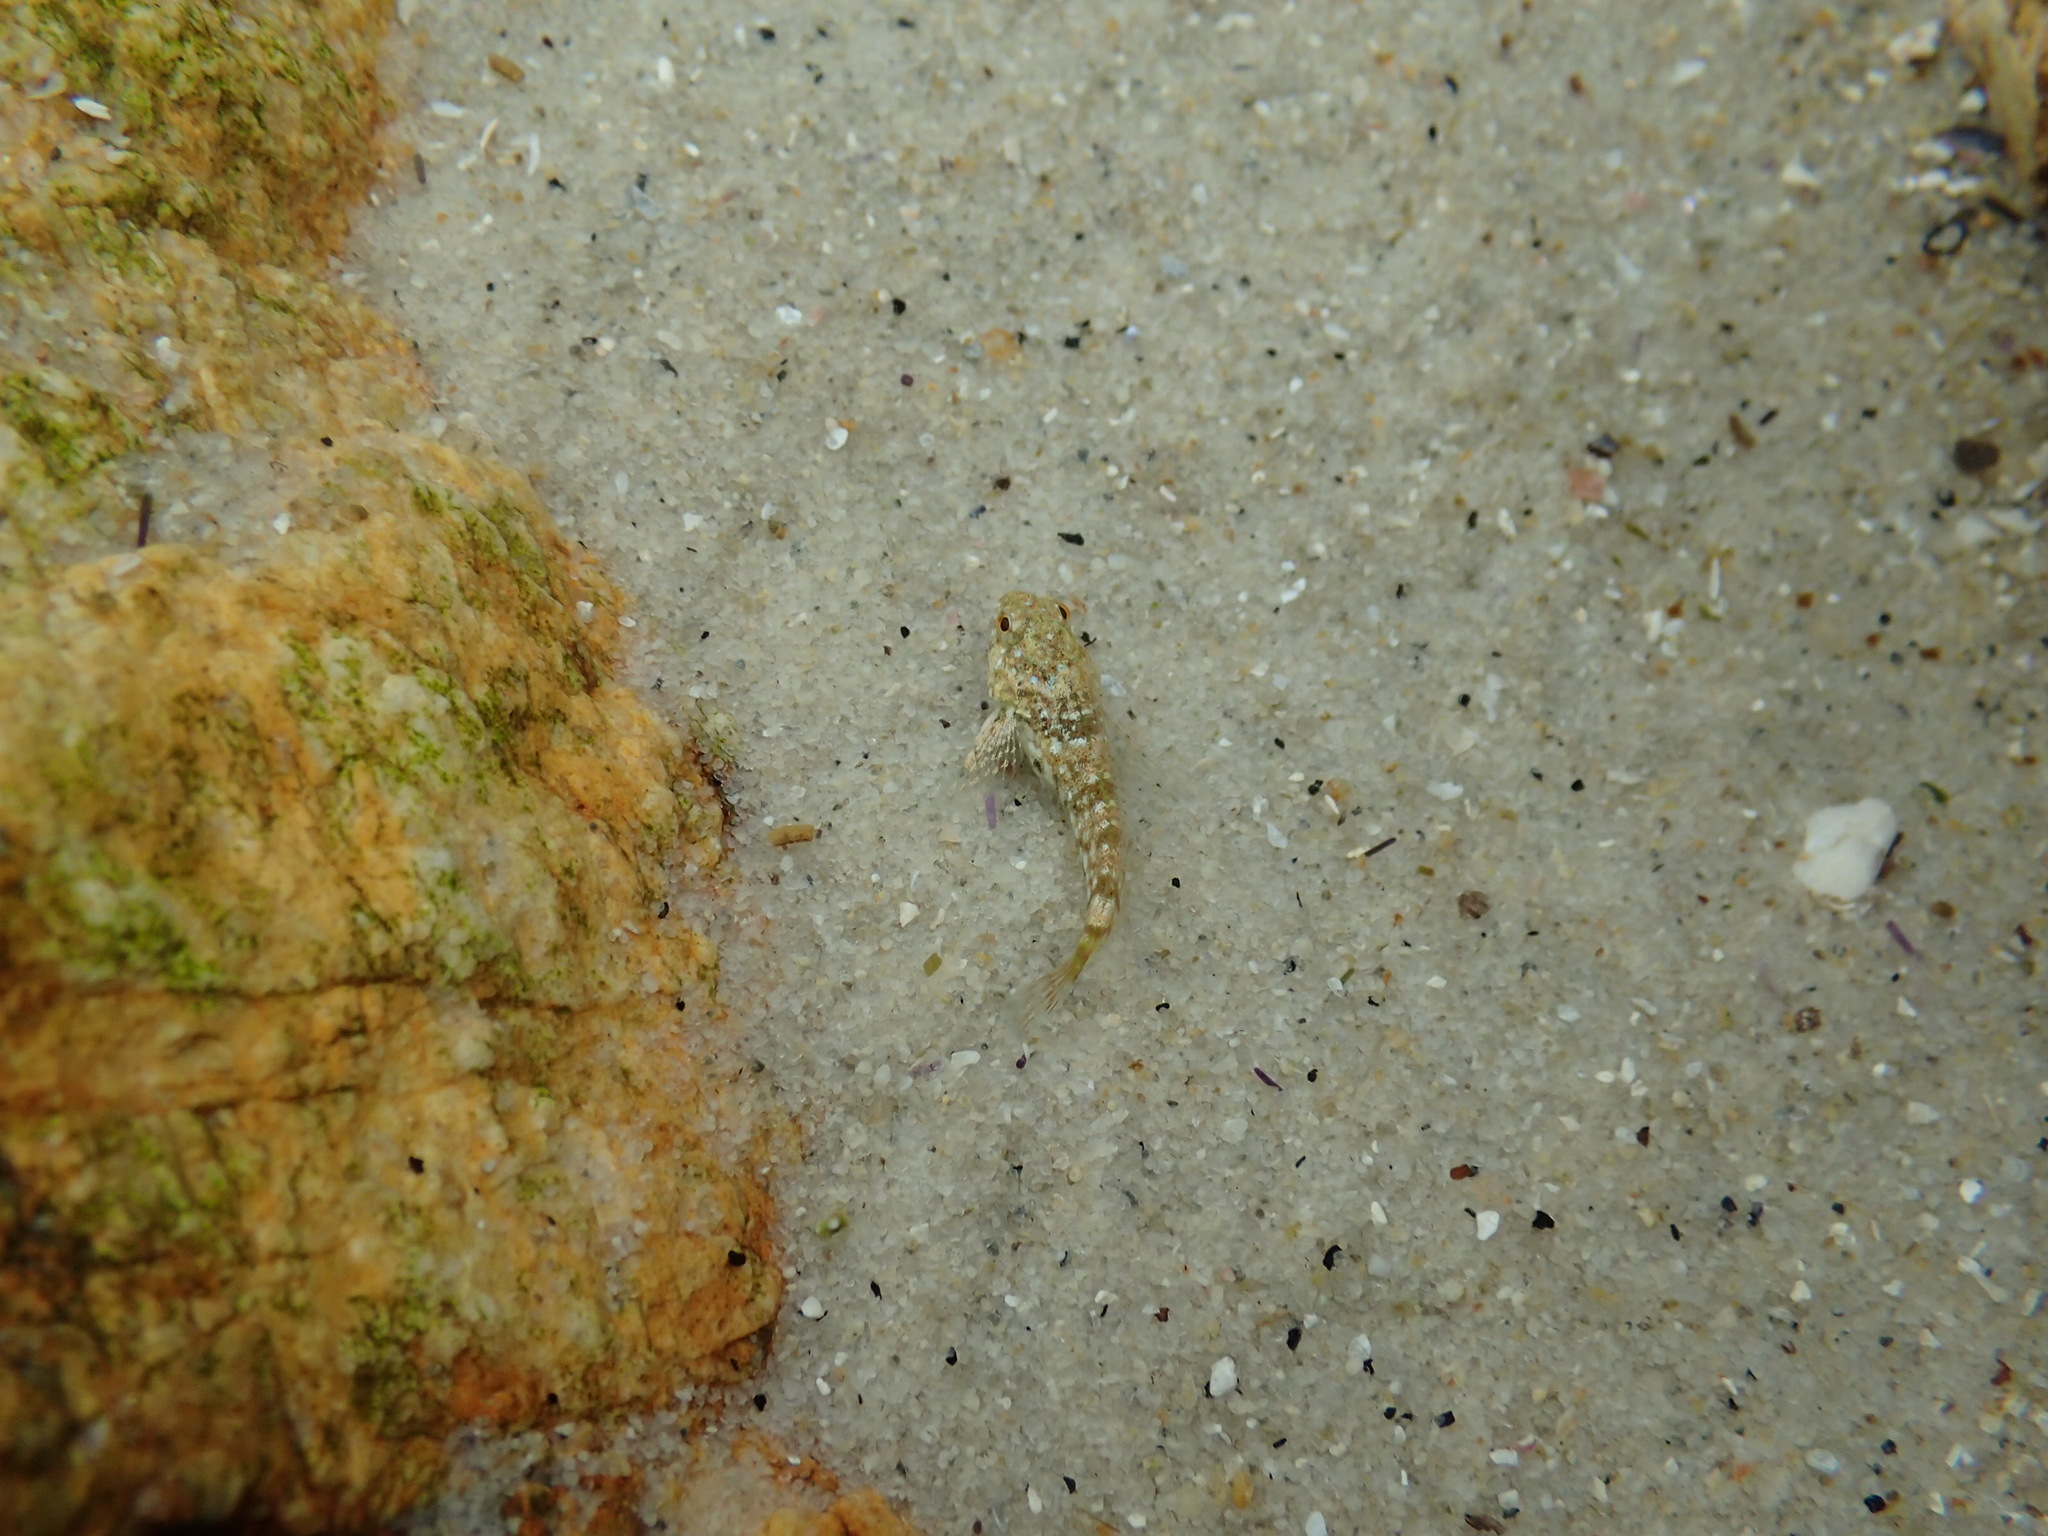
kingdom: Animalia
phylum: Chordata
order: Scorpaeniformes
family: Cottidae
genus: Clinocottus
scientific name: Clinocottus globiceps
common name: Mosshead sculpin
